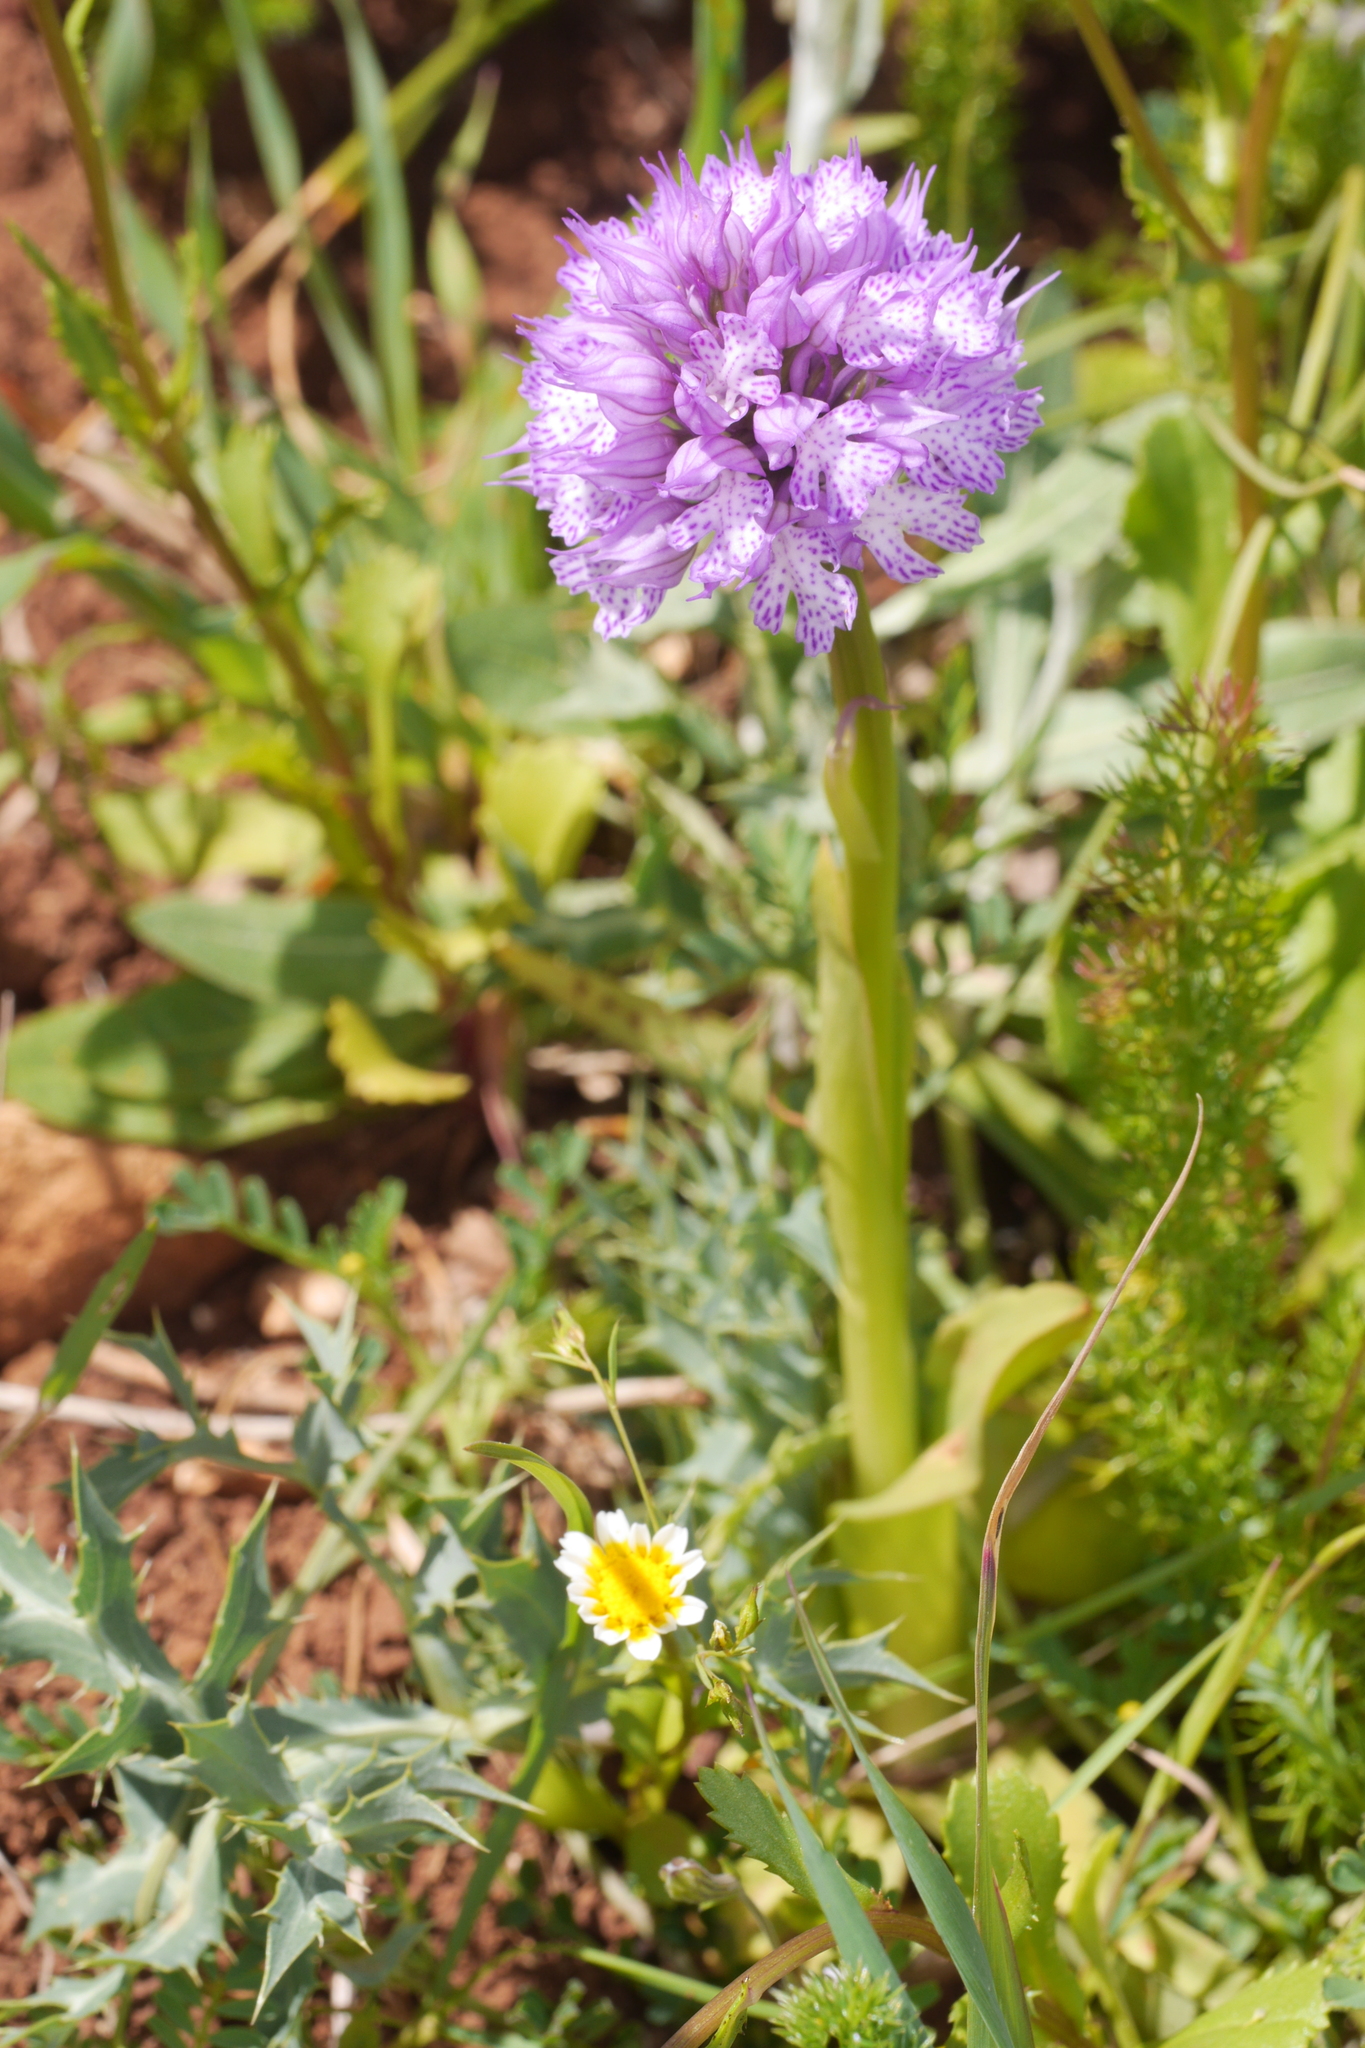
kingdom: Plantae
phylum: Tracheophyta
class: Liliopsida
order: Asparagales
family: Orchidaceae
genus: Neotinea
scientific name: Neotinea tridentata
